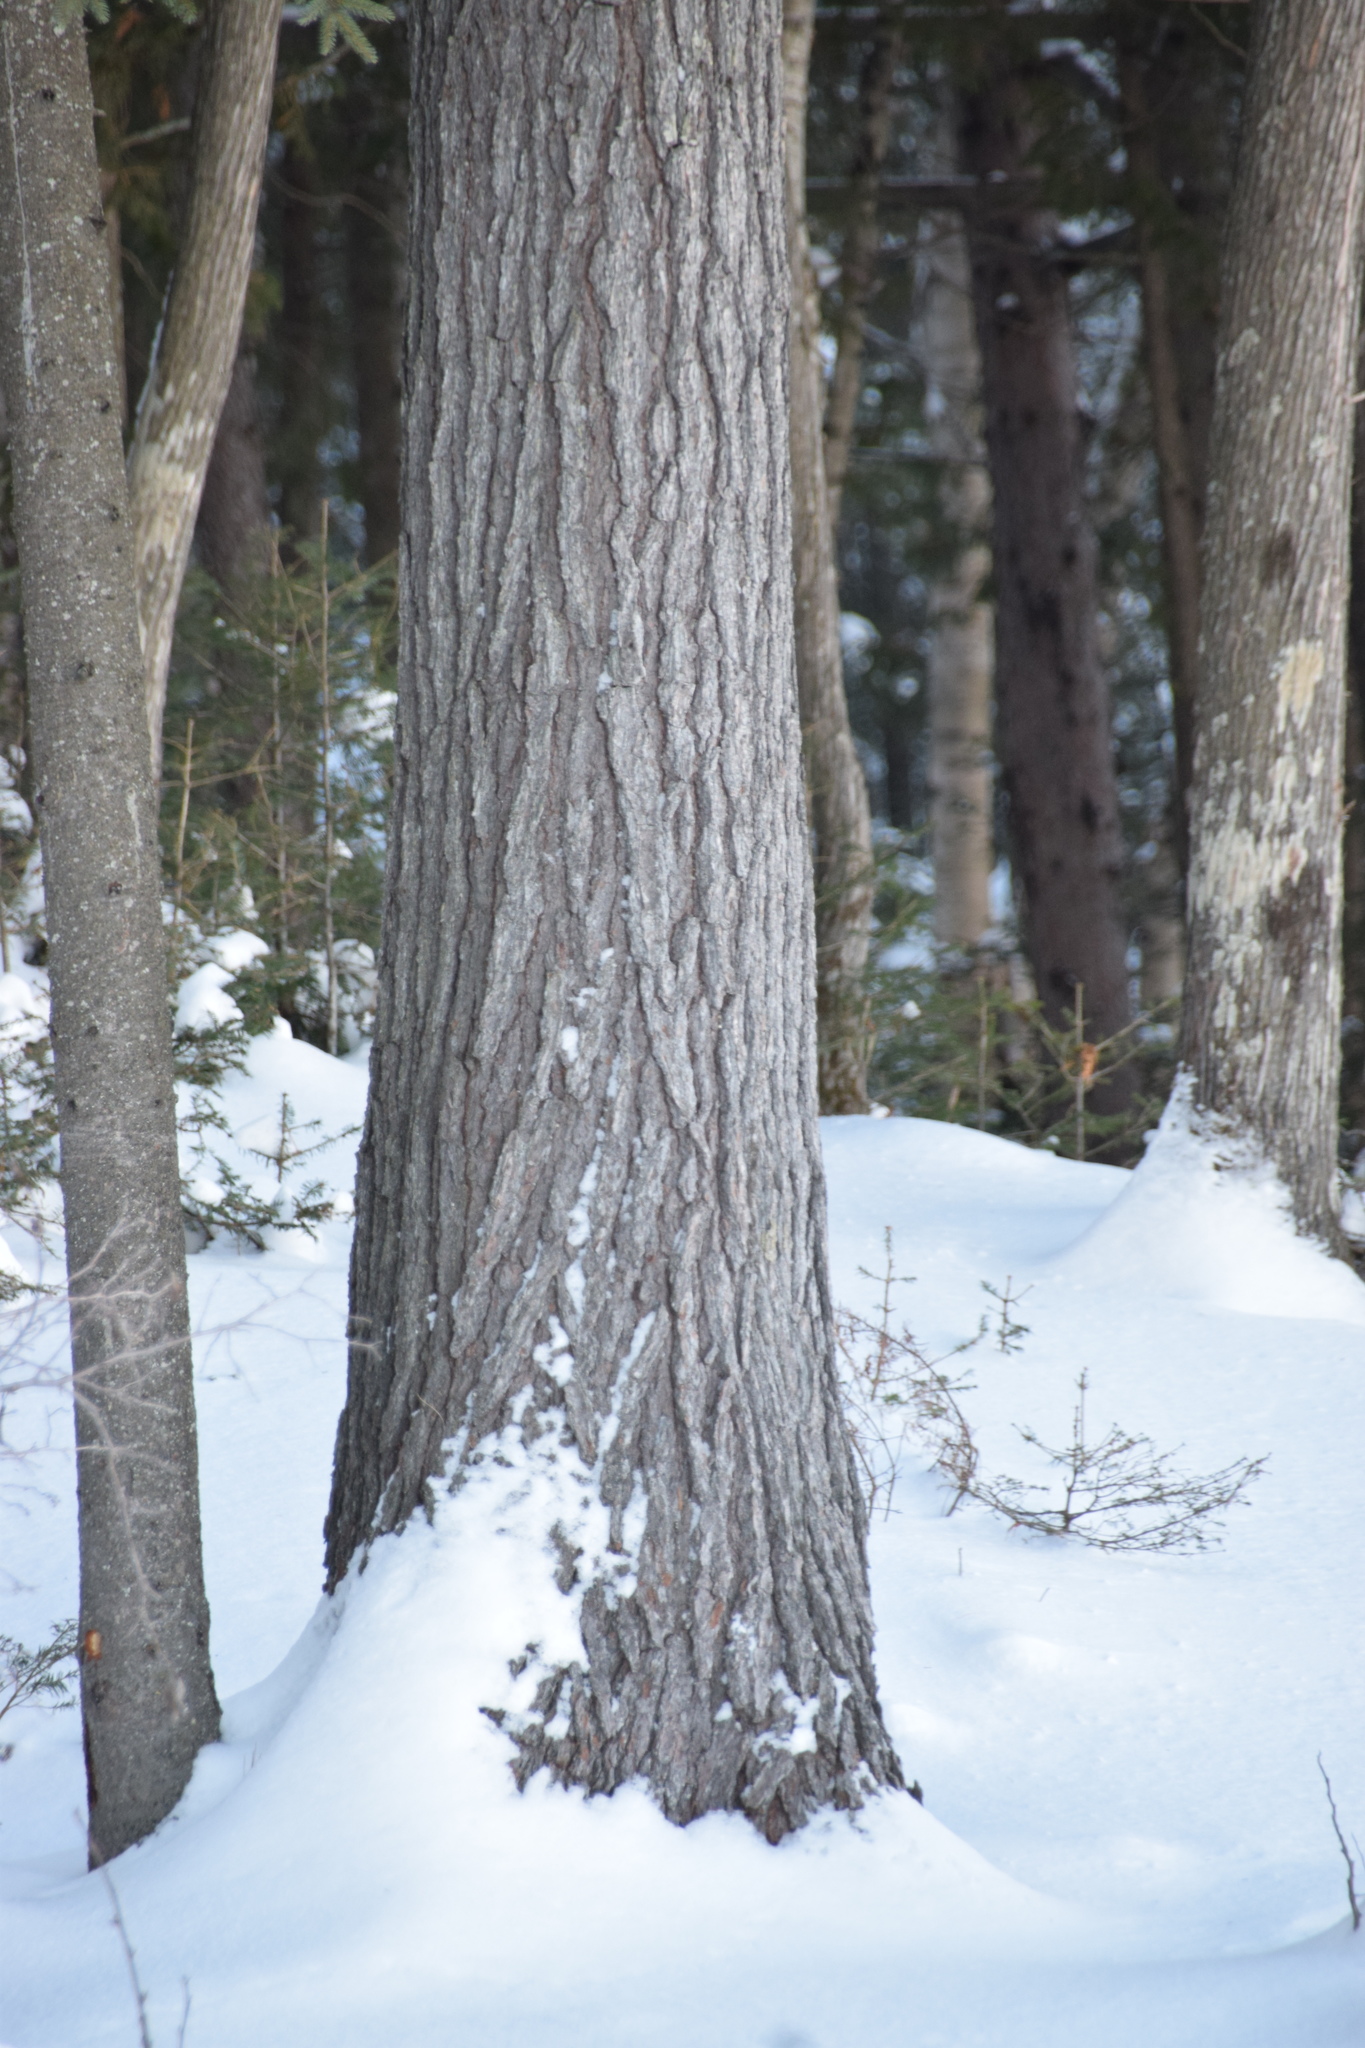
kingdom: Plantae
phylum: Tracheophyta
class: Pinopsida
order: Pinales
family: Pinaceae
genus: Pinus
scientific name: Pinus strobus
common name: Weymouth pine
